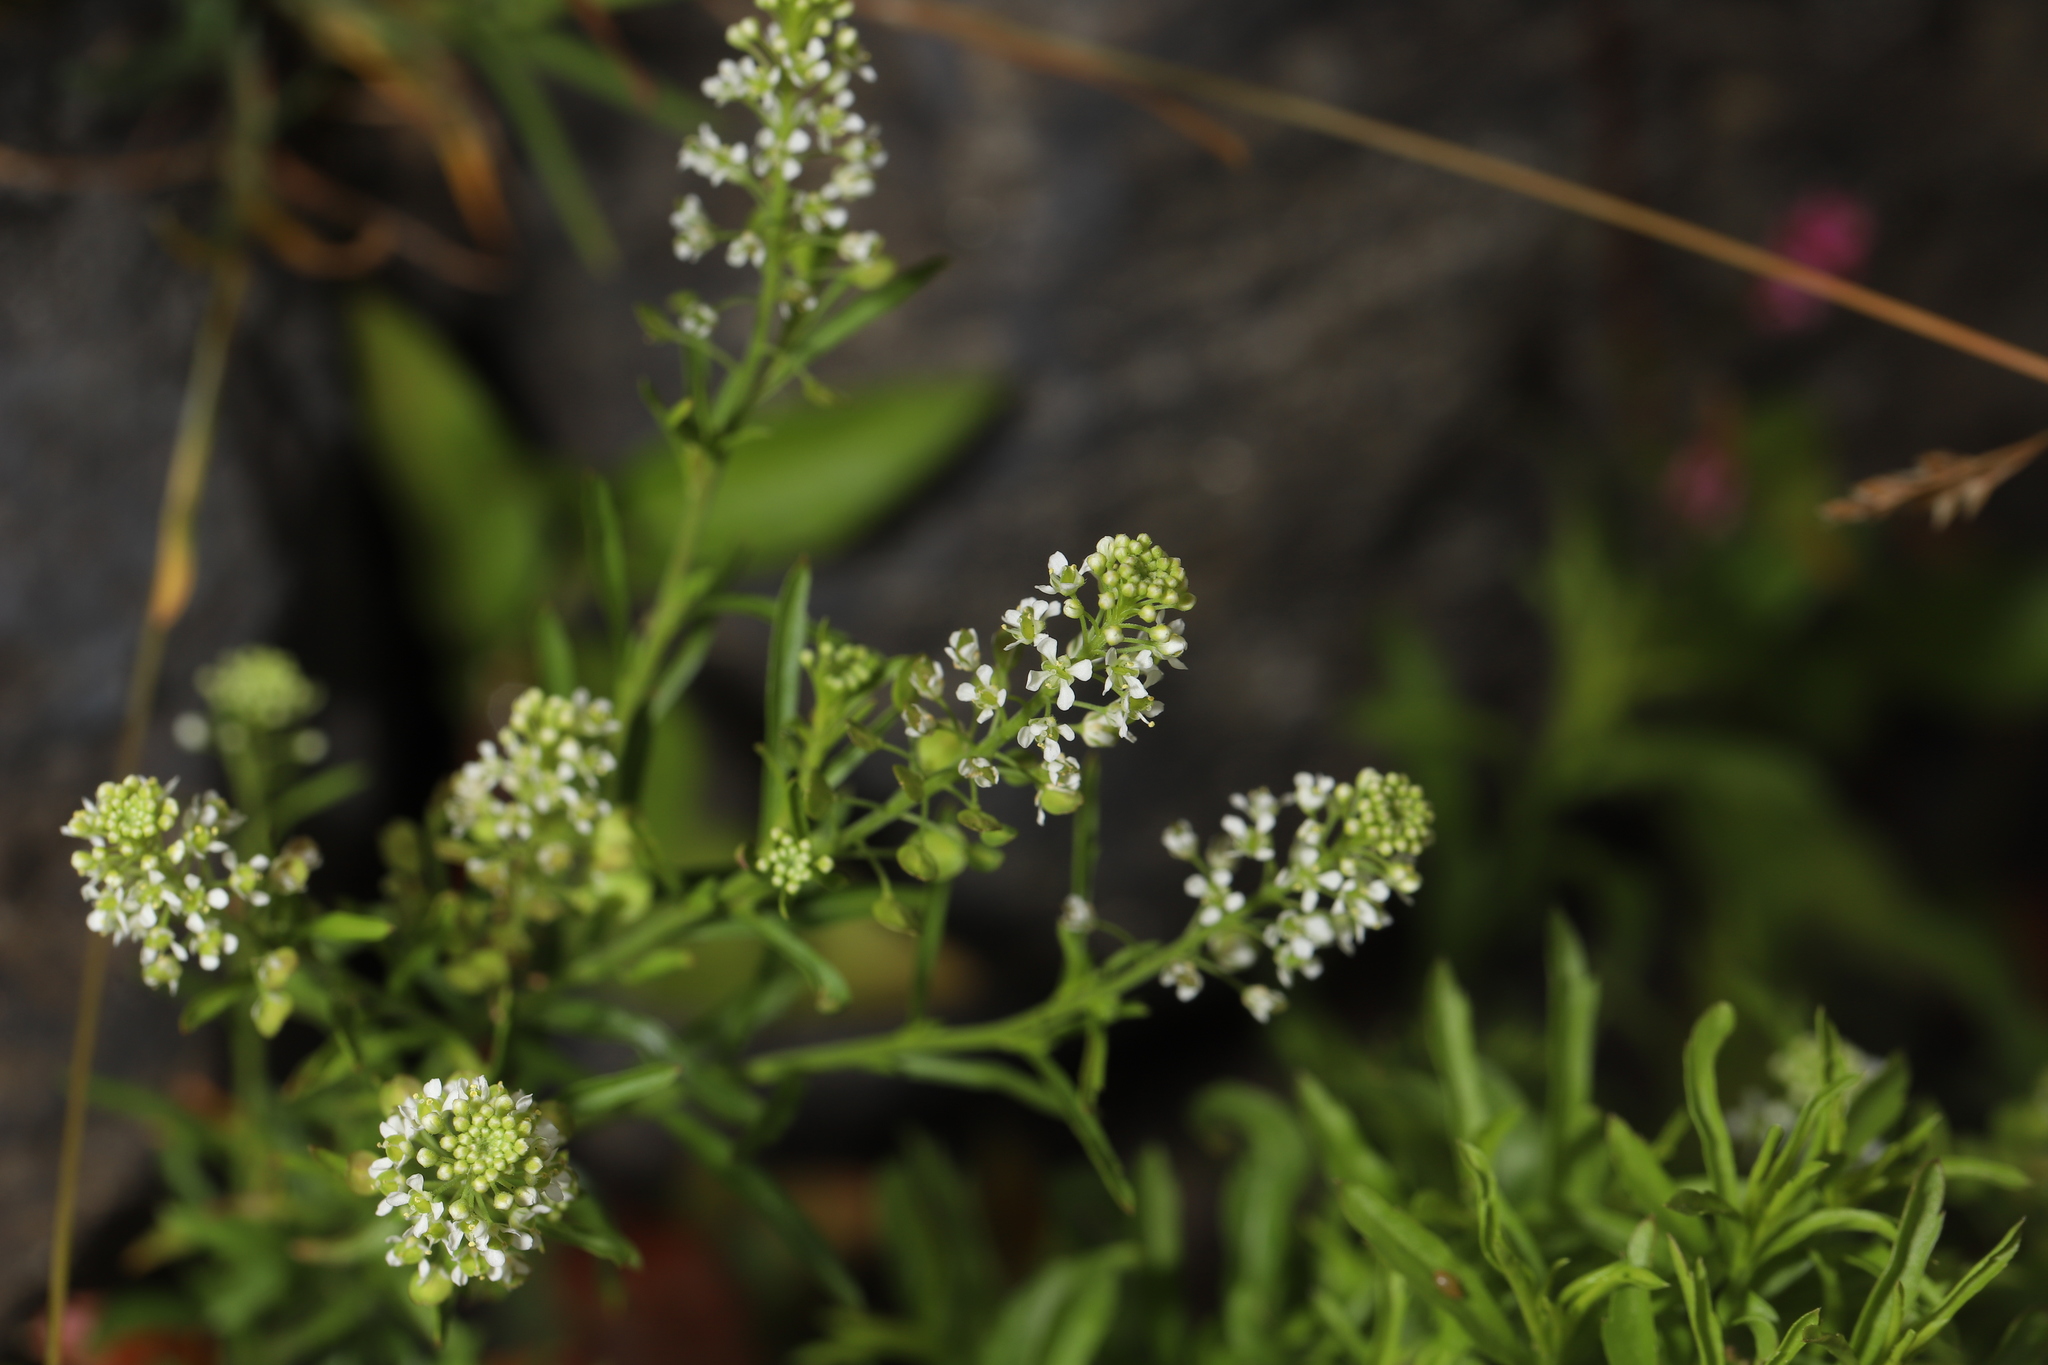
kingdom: Plantae
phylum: Tracheophyta
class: Magnoliopsida
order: Brassicales
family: Brassicaceae
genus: Lepidium
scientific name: Lepidium virginicum
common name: Least pepperwort
